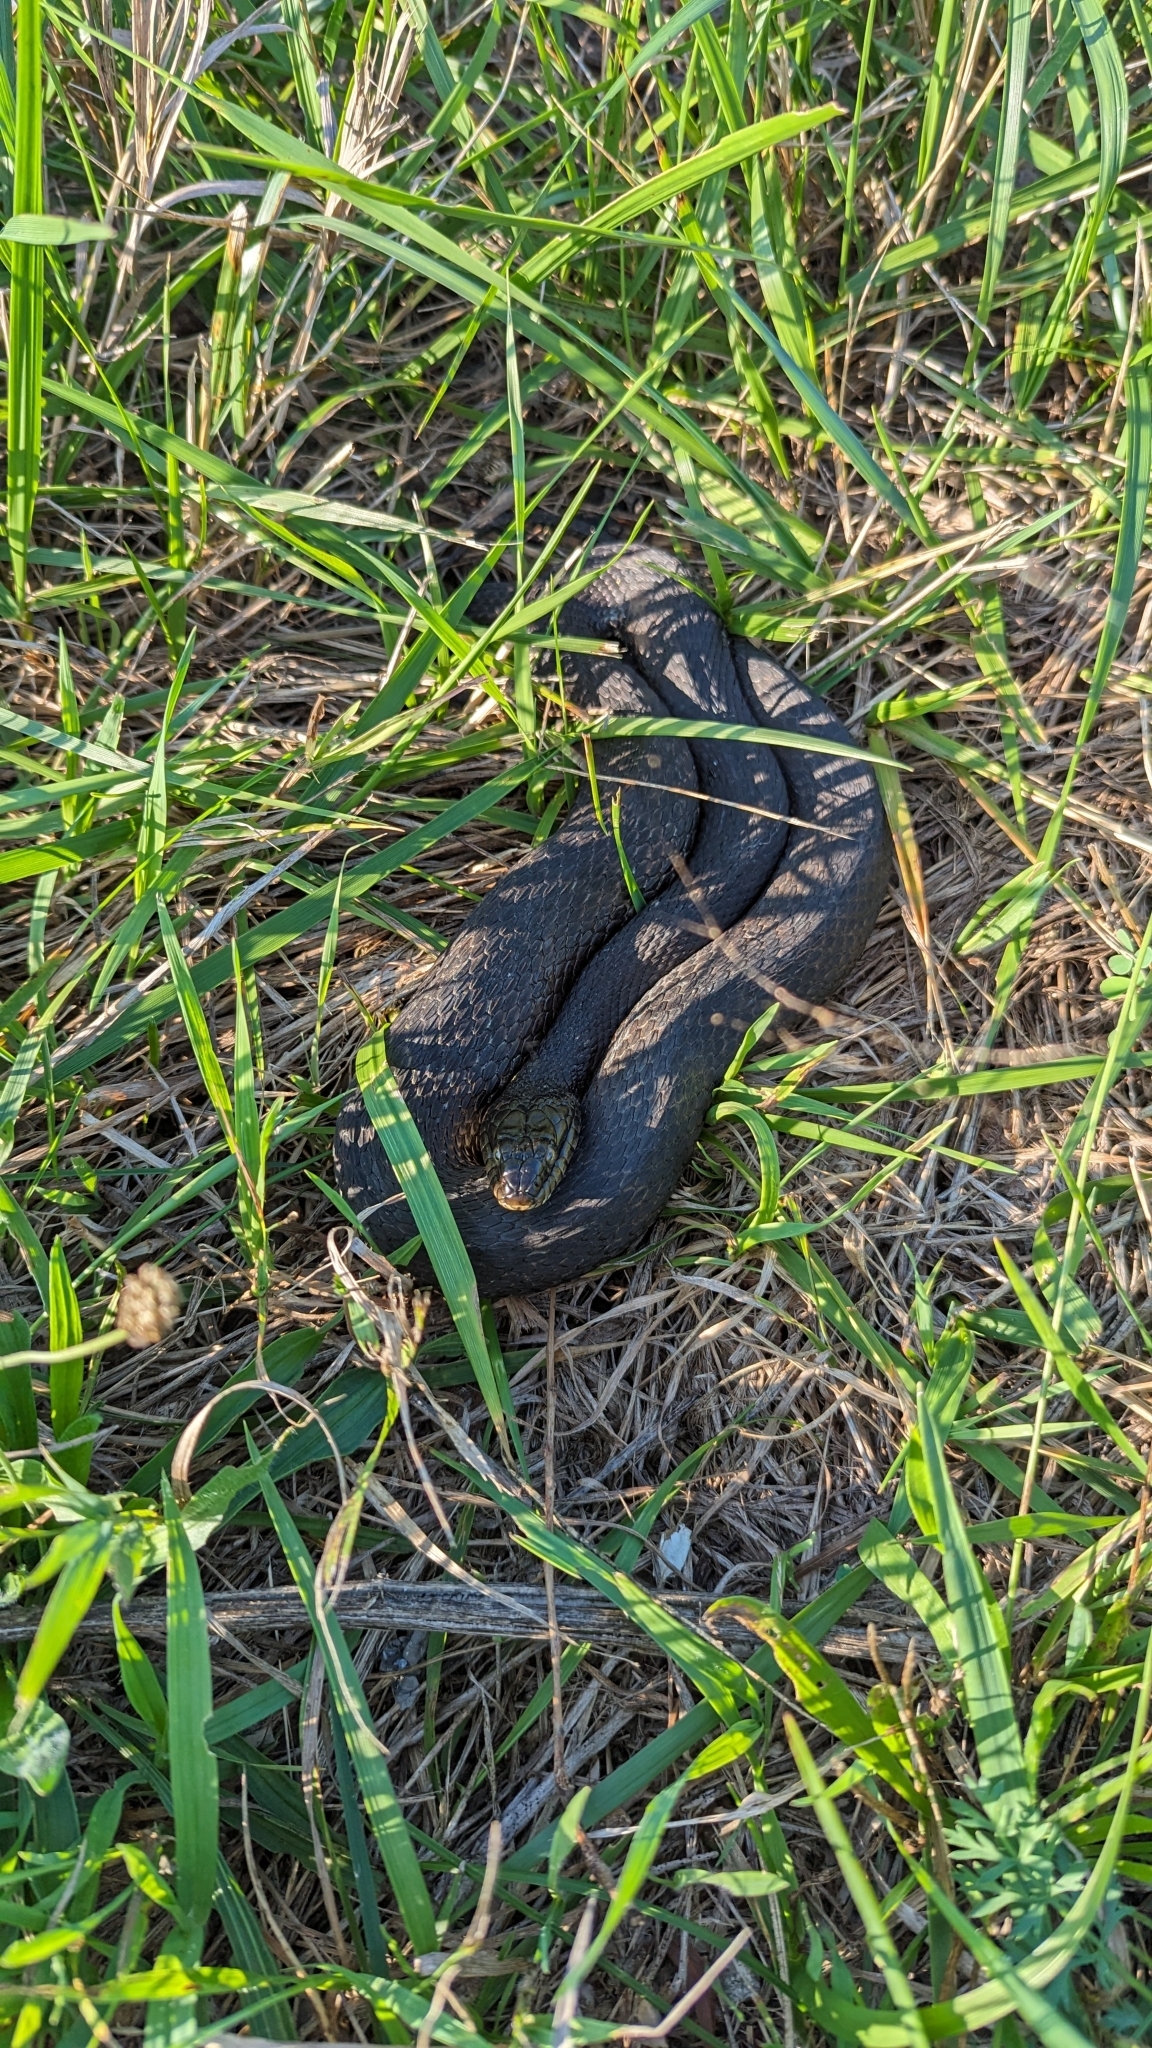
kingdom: Animalia
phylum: Chordata
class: Squamata
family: Colubridae
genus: Nerodia
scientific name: Nerodia sipedon
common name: Northern water snake
